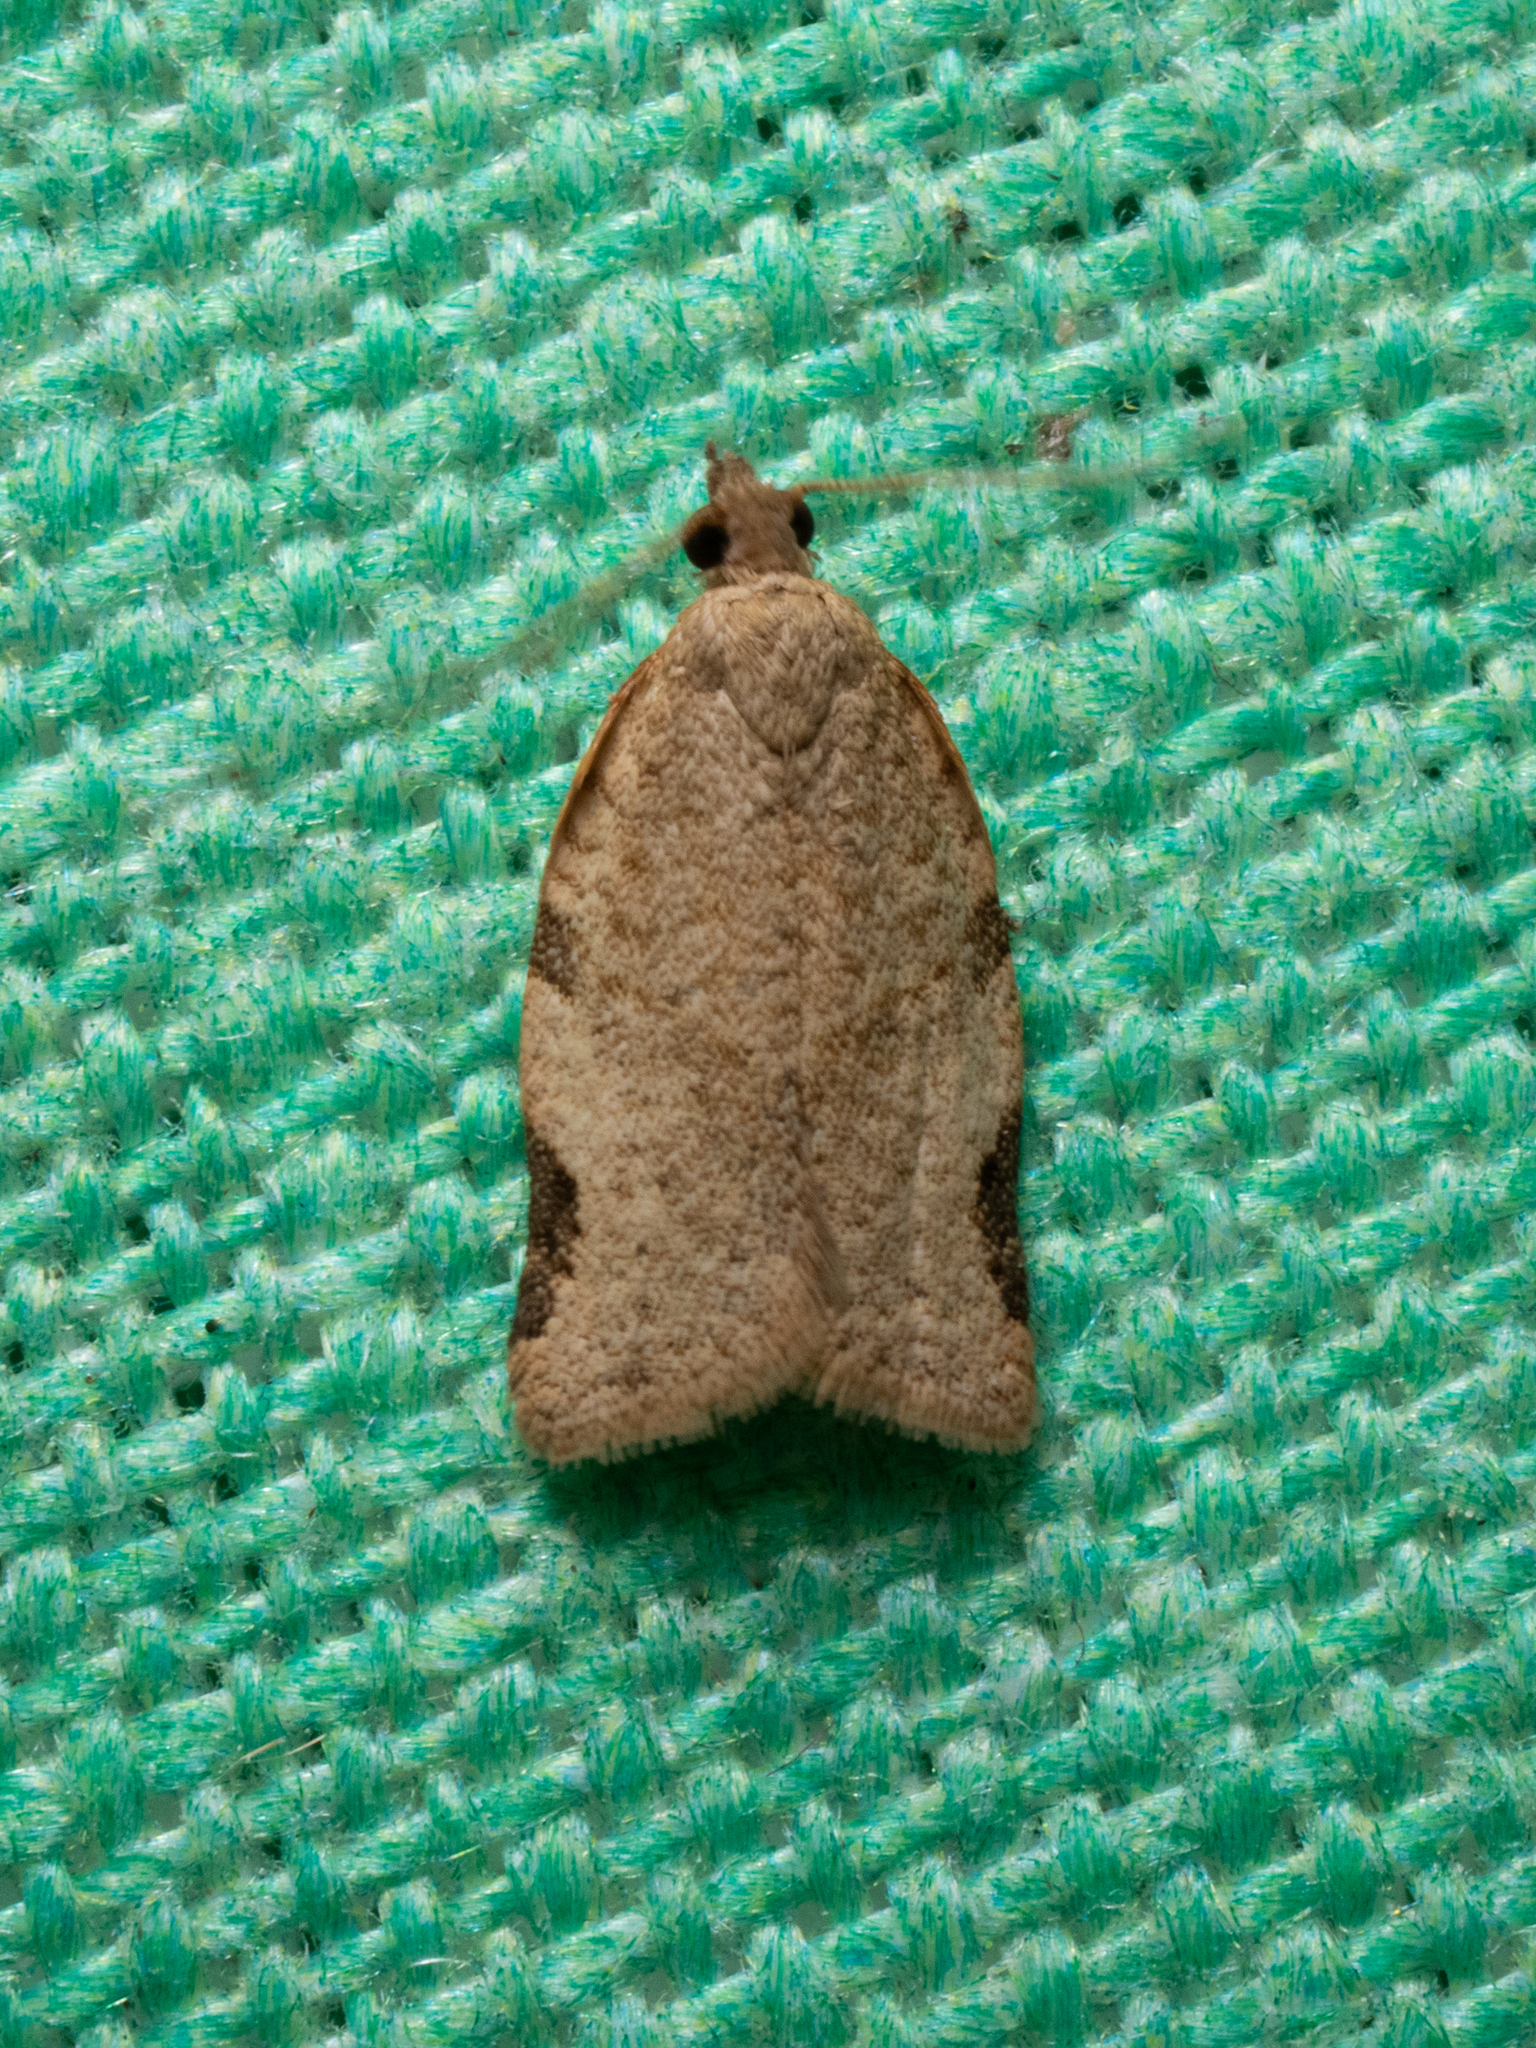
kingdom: Animalia
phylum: Arthropoda
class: Insecta
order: Lepidoptera
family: Tortricidae
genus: Clepsis
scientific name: Clepsis virescana
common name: Greenish apple moth
